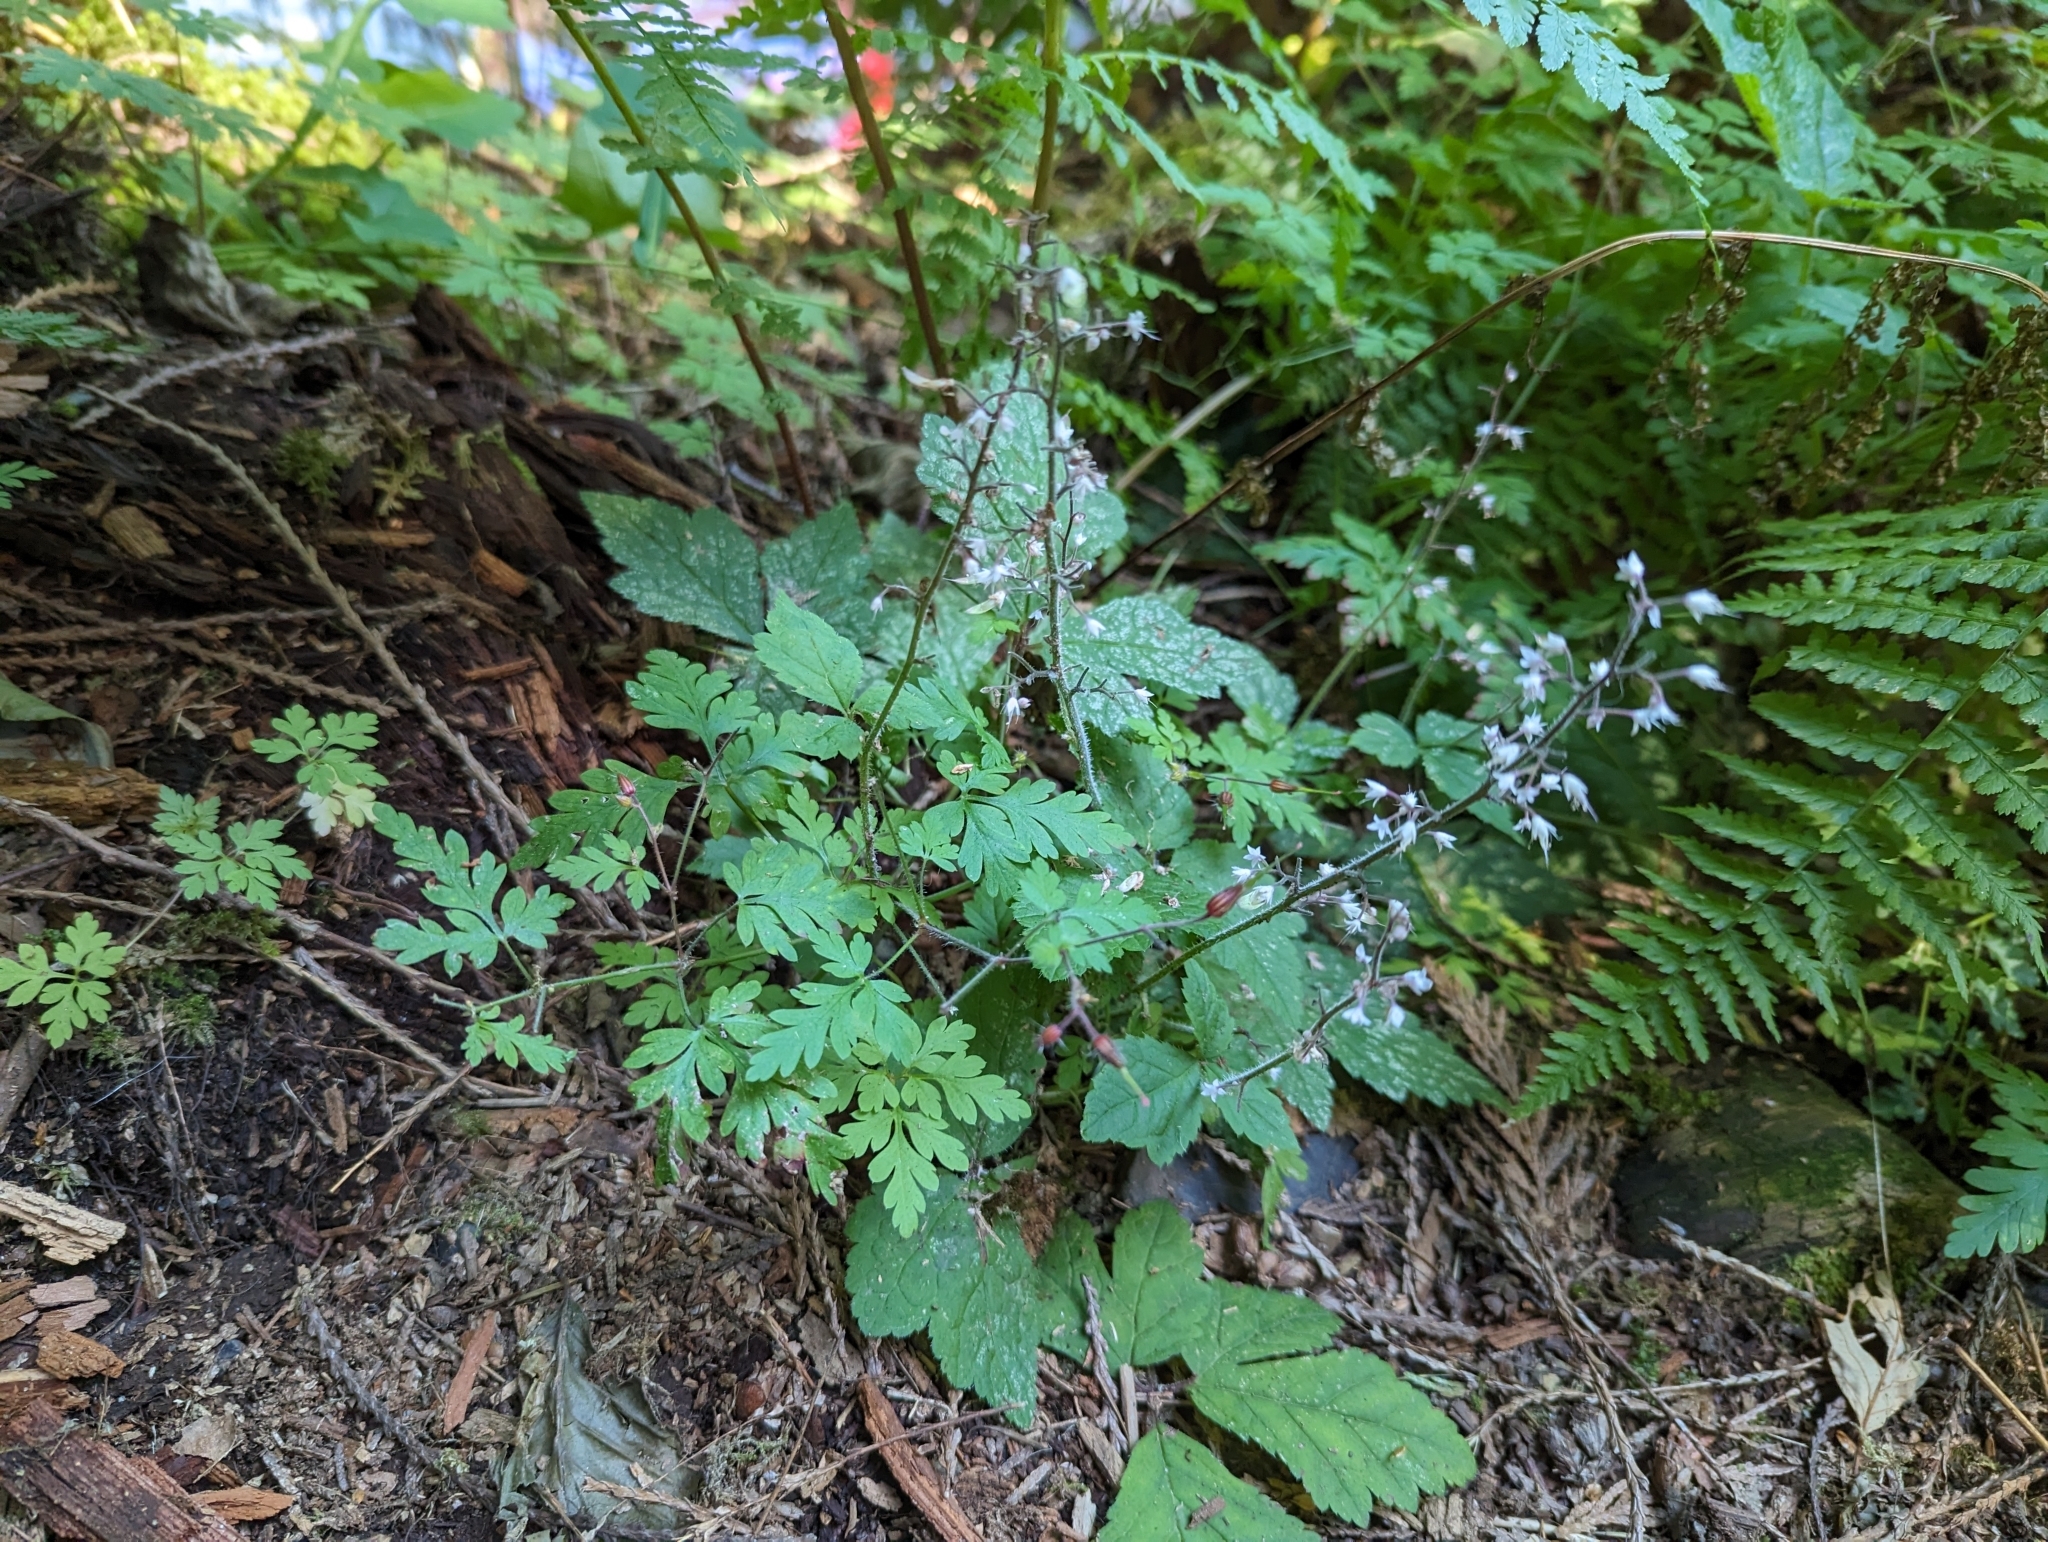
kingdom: Plantae
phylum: Tracheophyta
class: Magnoliopsida
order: Saxifragales
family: Saxifragaceae
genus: Tiarella
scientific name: Tiarella trifoliata
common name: Sugar-scoop
